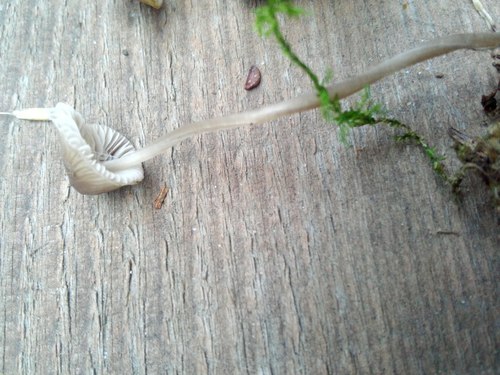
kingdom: Fungi
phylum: Basidiomycota
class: Agaricomycetes
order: Agaricales
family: Mycenaceae
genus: Mycena
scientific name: Mycena
